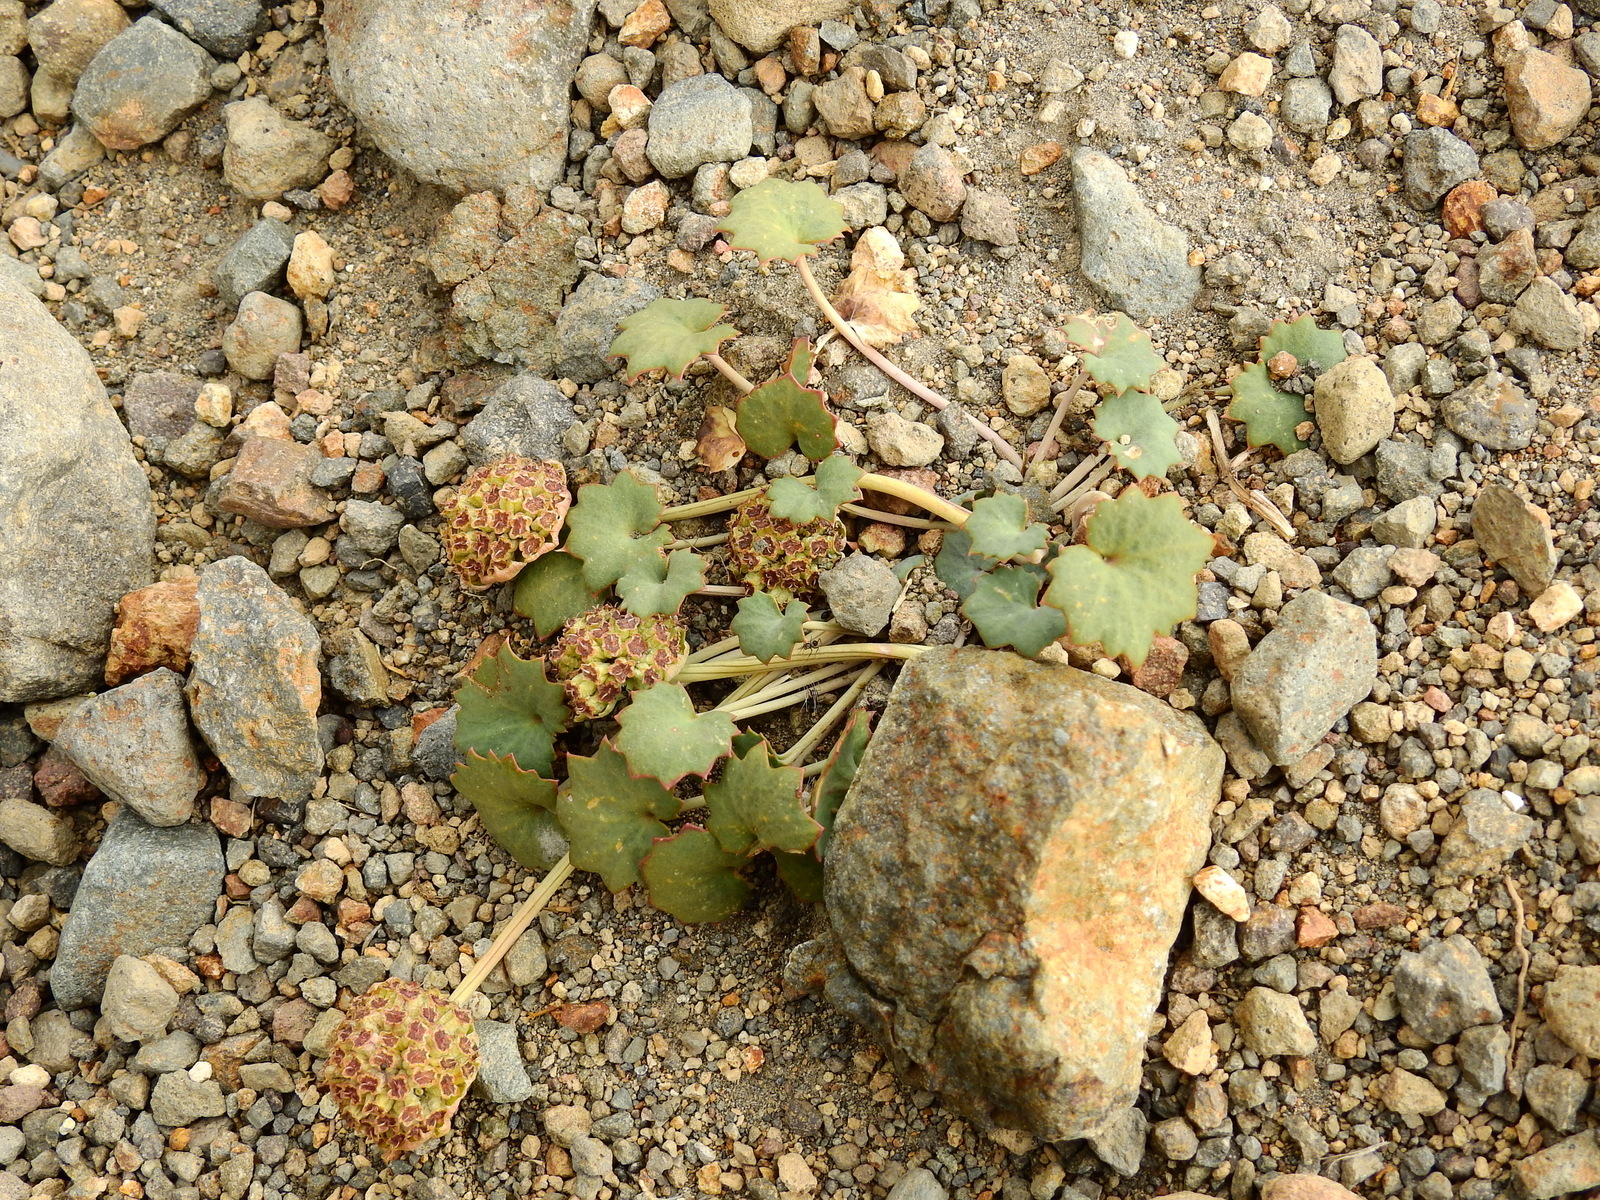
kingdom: Plantae
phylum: Tracheophyta
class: Magnoliopsida
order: Apiales
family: Apiaceae
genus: Pozoa
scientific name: Pozoa coriacea
